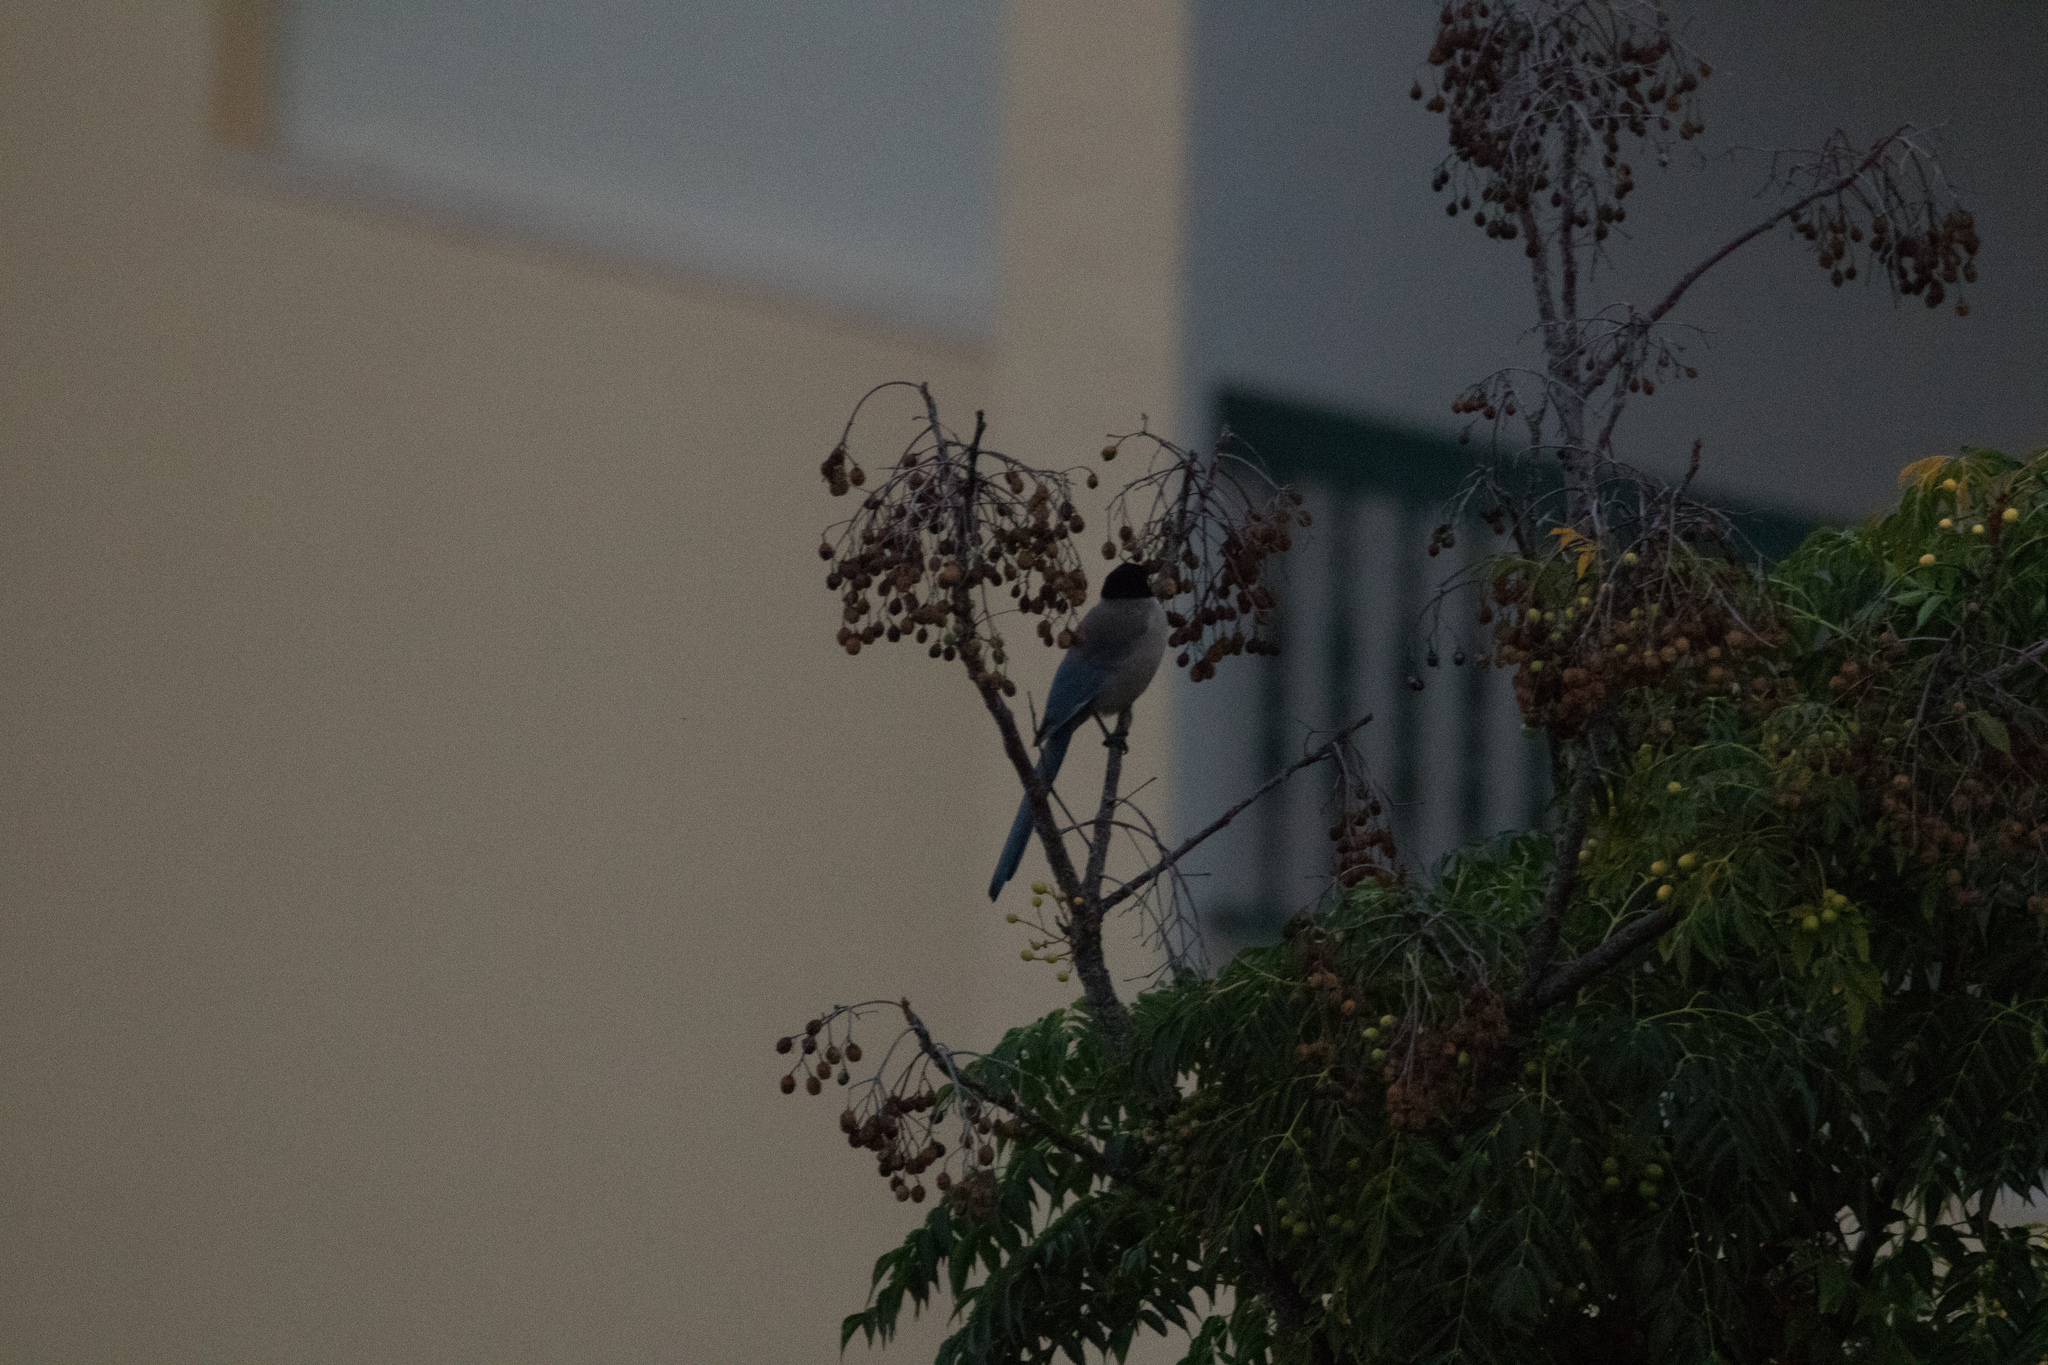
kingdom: Animalia
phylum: Chordata
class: Aves
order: Passeriformes
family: Corvidae
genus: Cyanopica
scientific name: Cyanopica cooki
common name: Iberian magpie
